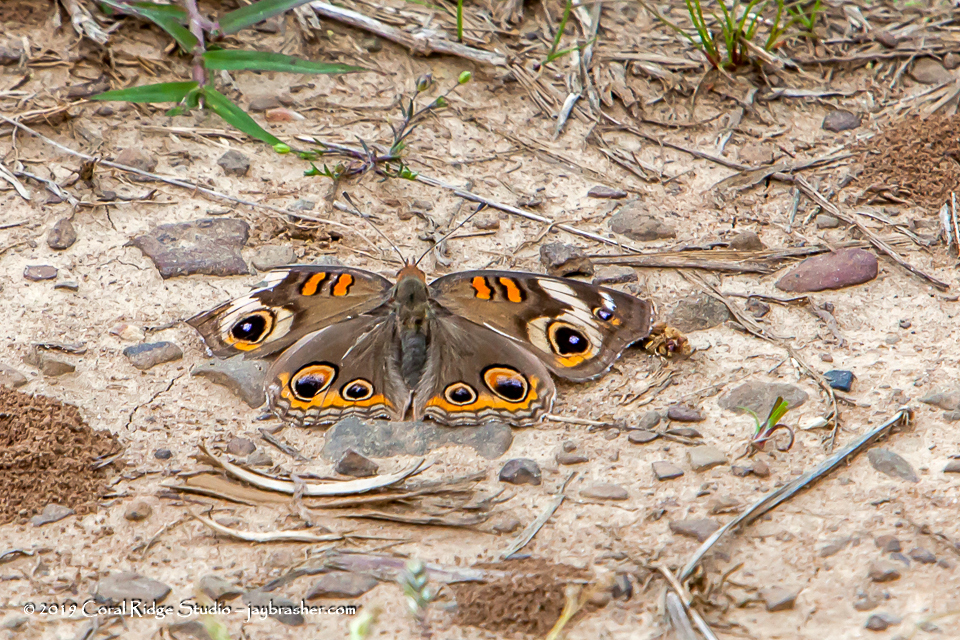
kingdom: Animalia
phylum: Arthropoda
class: Insecta
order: Lepidoptera
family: Nymphalidae
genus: Junonia
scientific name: Junonia coenia
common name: Common buckeye
